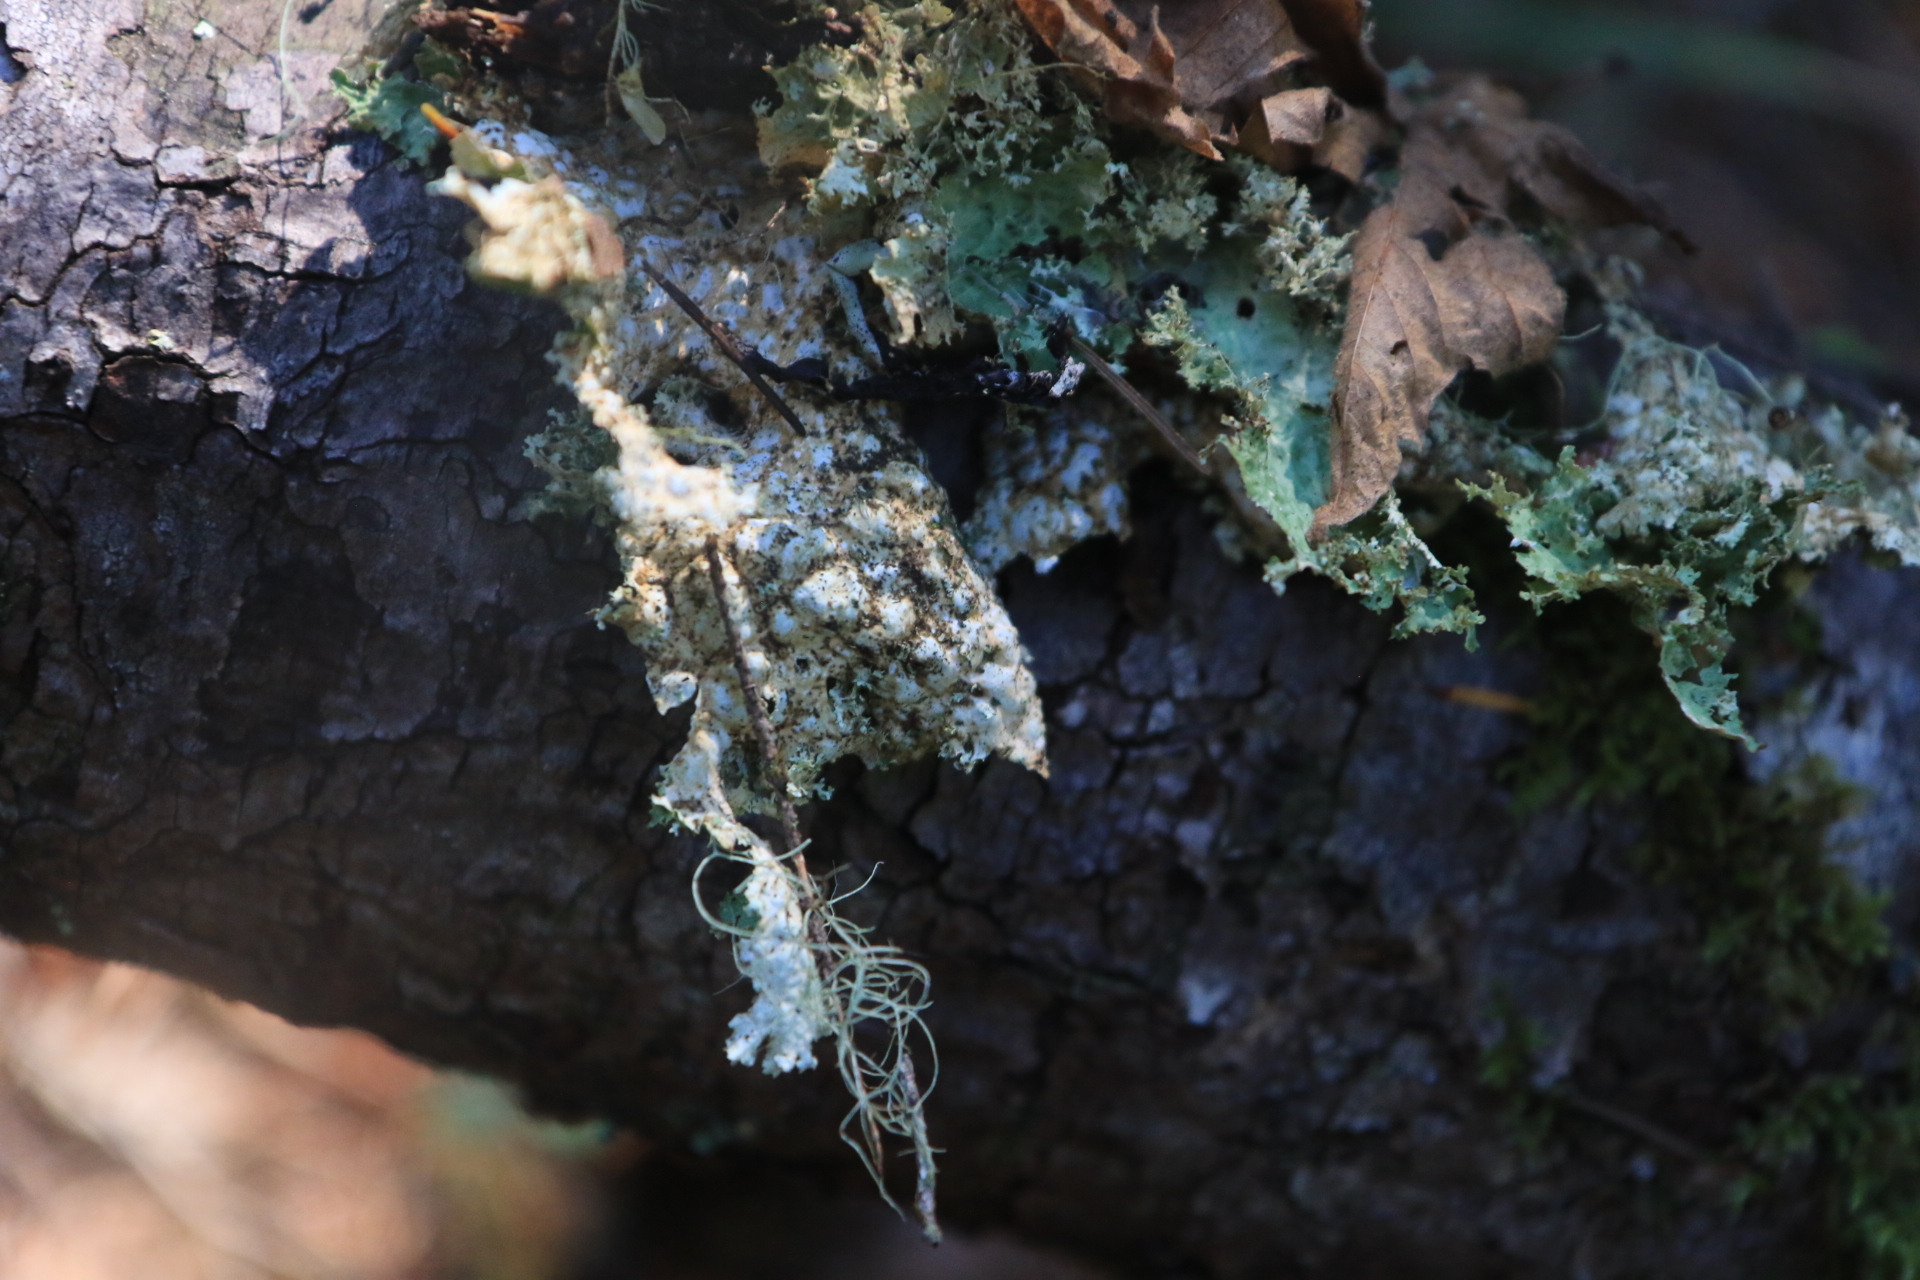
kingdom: Fungi
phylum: Ascomycota
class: Lecanoromycetes
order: Peltigerales
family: Lobariaceae
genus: Lobaria
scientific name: Lobaria oregana
